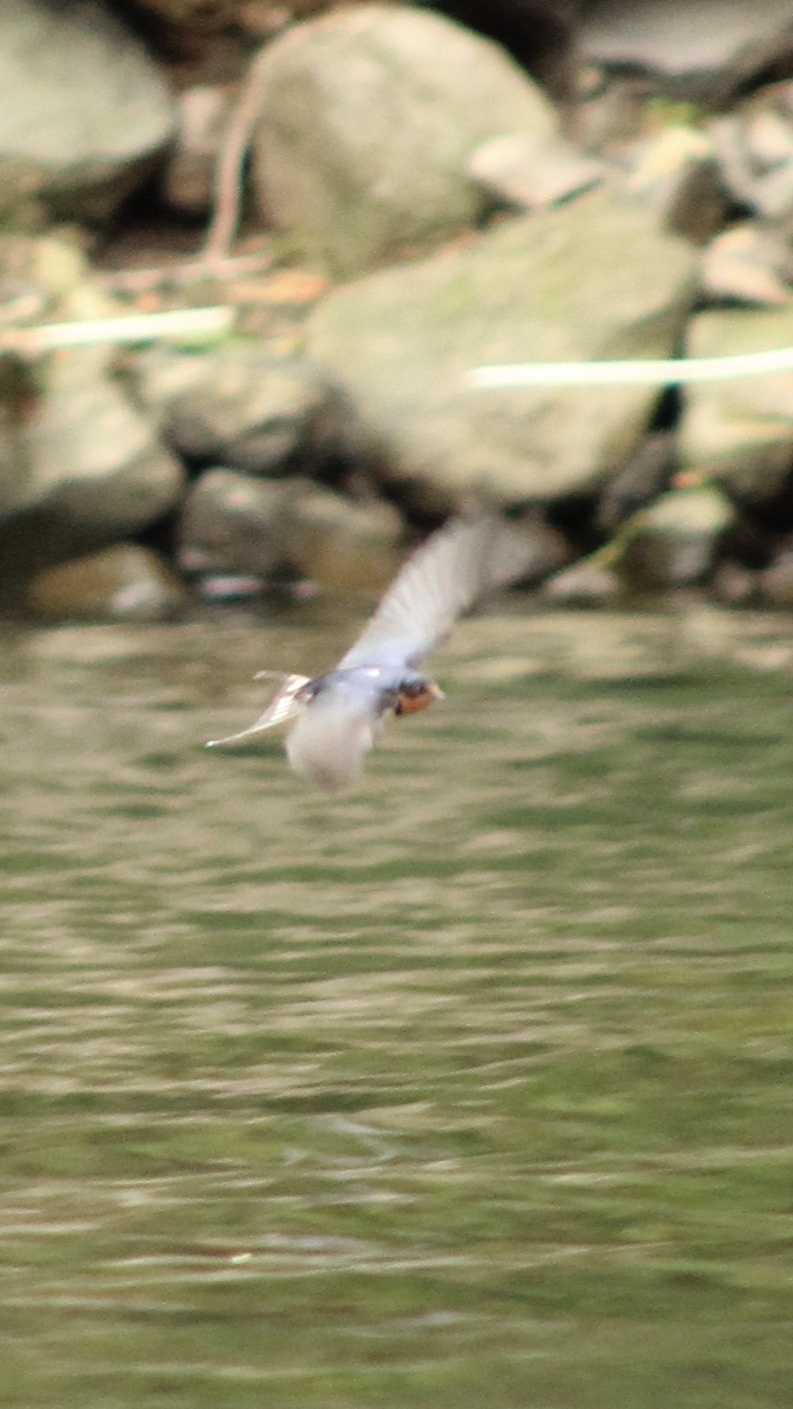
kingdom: Animalia
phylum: Chordata
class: Aves
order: Passeriformes
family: Hirundinidae
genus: Hirundo
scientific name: Hirundo rustica
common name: Barn swallow
